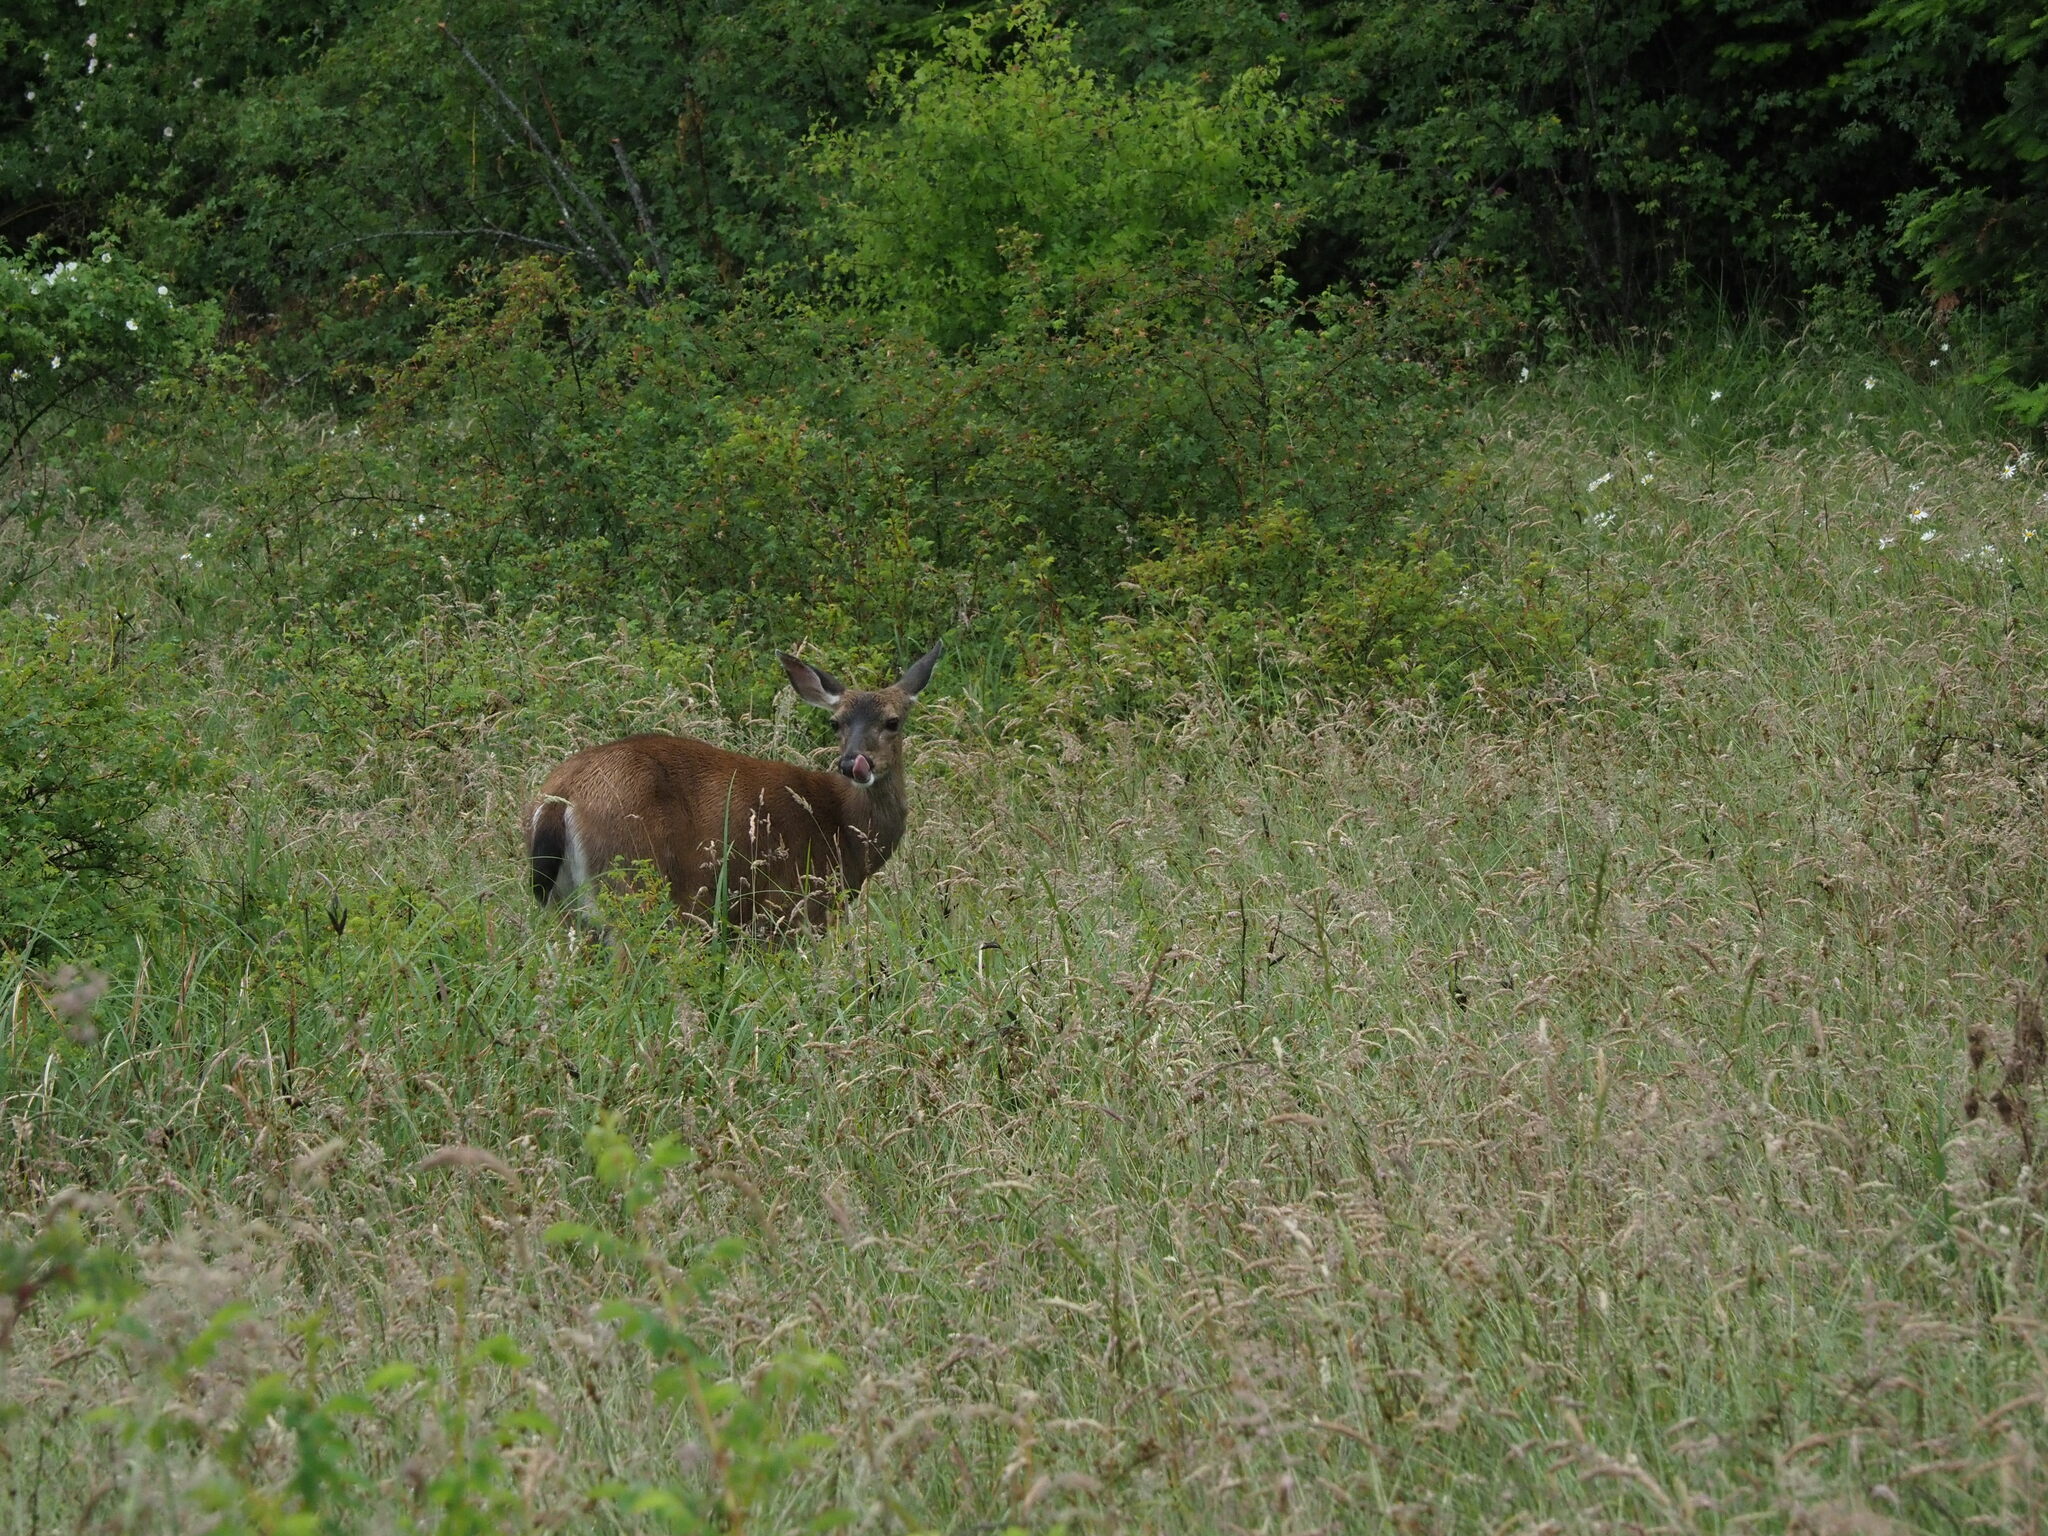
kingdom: Animalia
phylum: Chordata
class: Mammalia
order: Artiodactyla
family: Cervidae
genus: Odocoileus
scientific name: Odocoileus hemionus
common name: Mule deer
